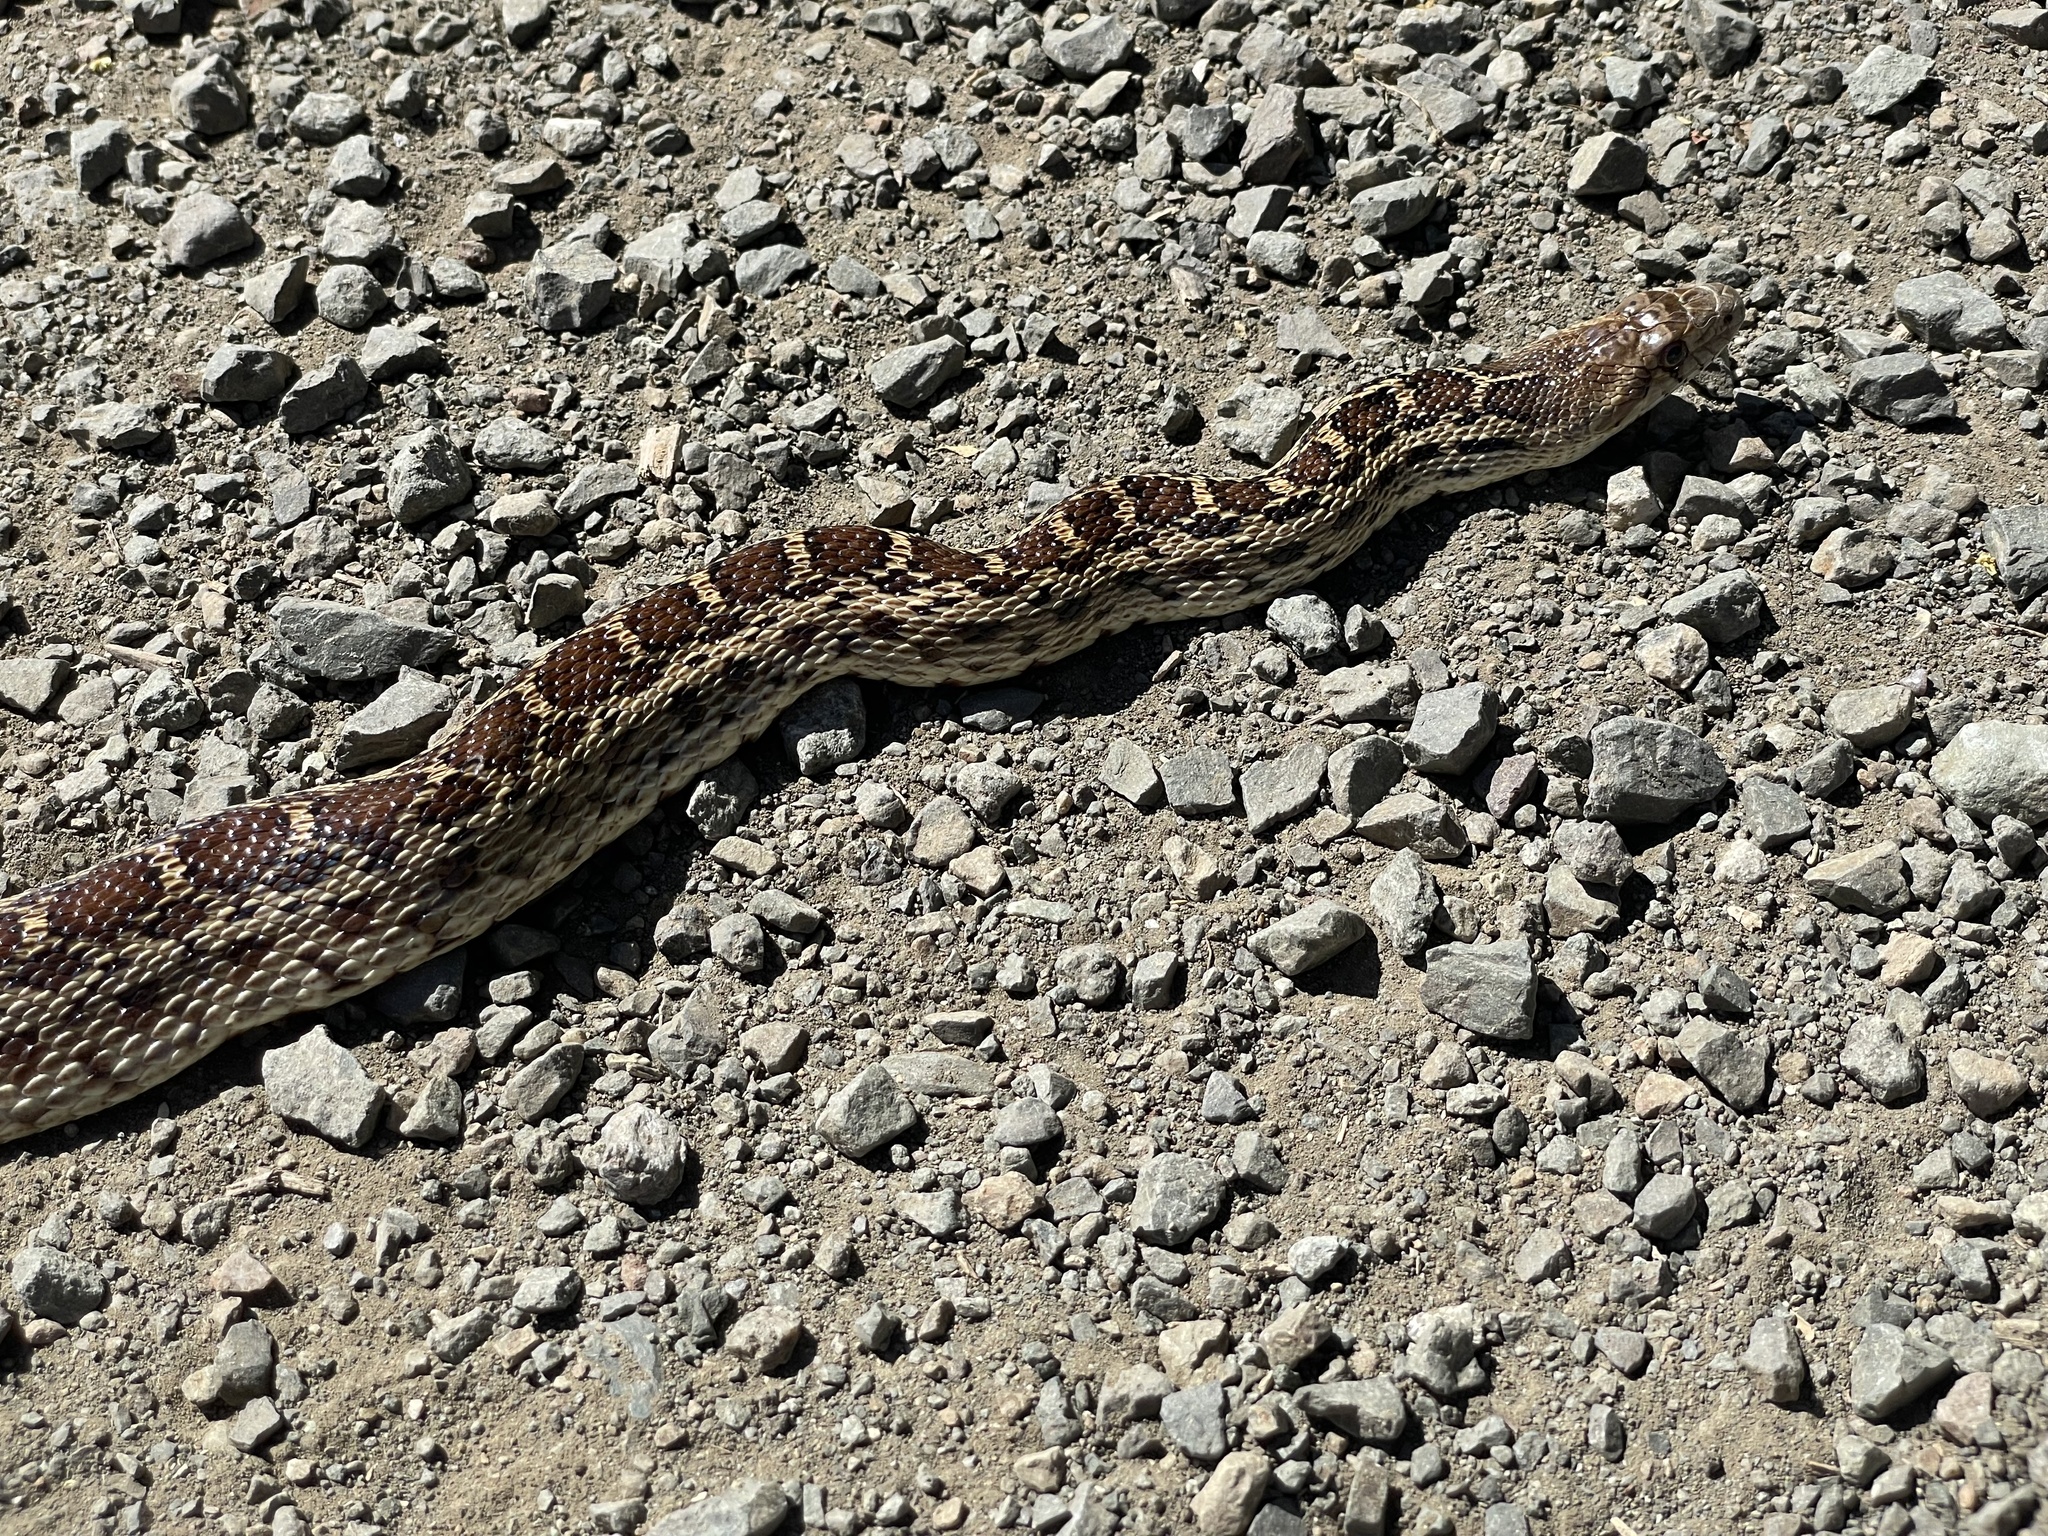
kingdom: Animalia
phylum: Chordata
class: Squamata
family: Colubridae
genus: Pituophis
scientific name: Pituophis catenifer
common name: Gopher snake
